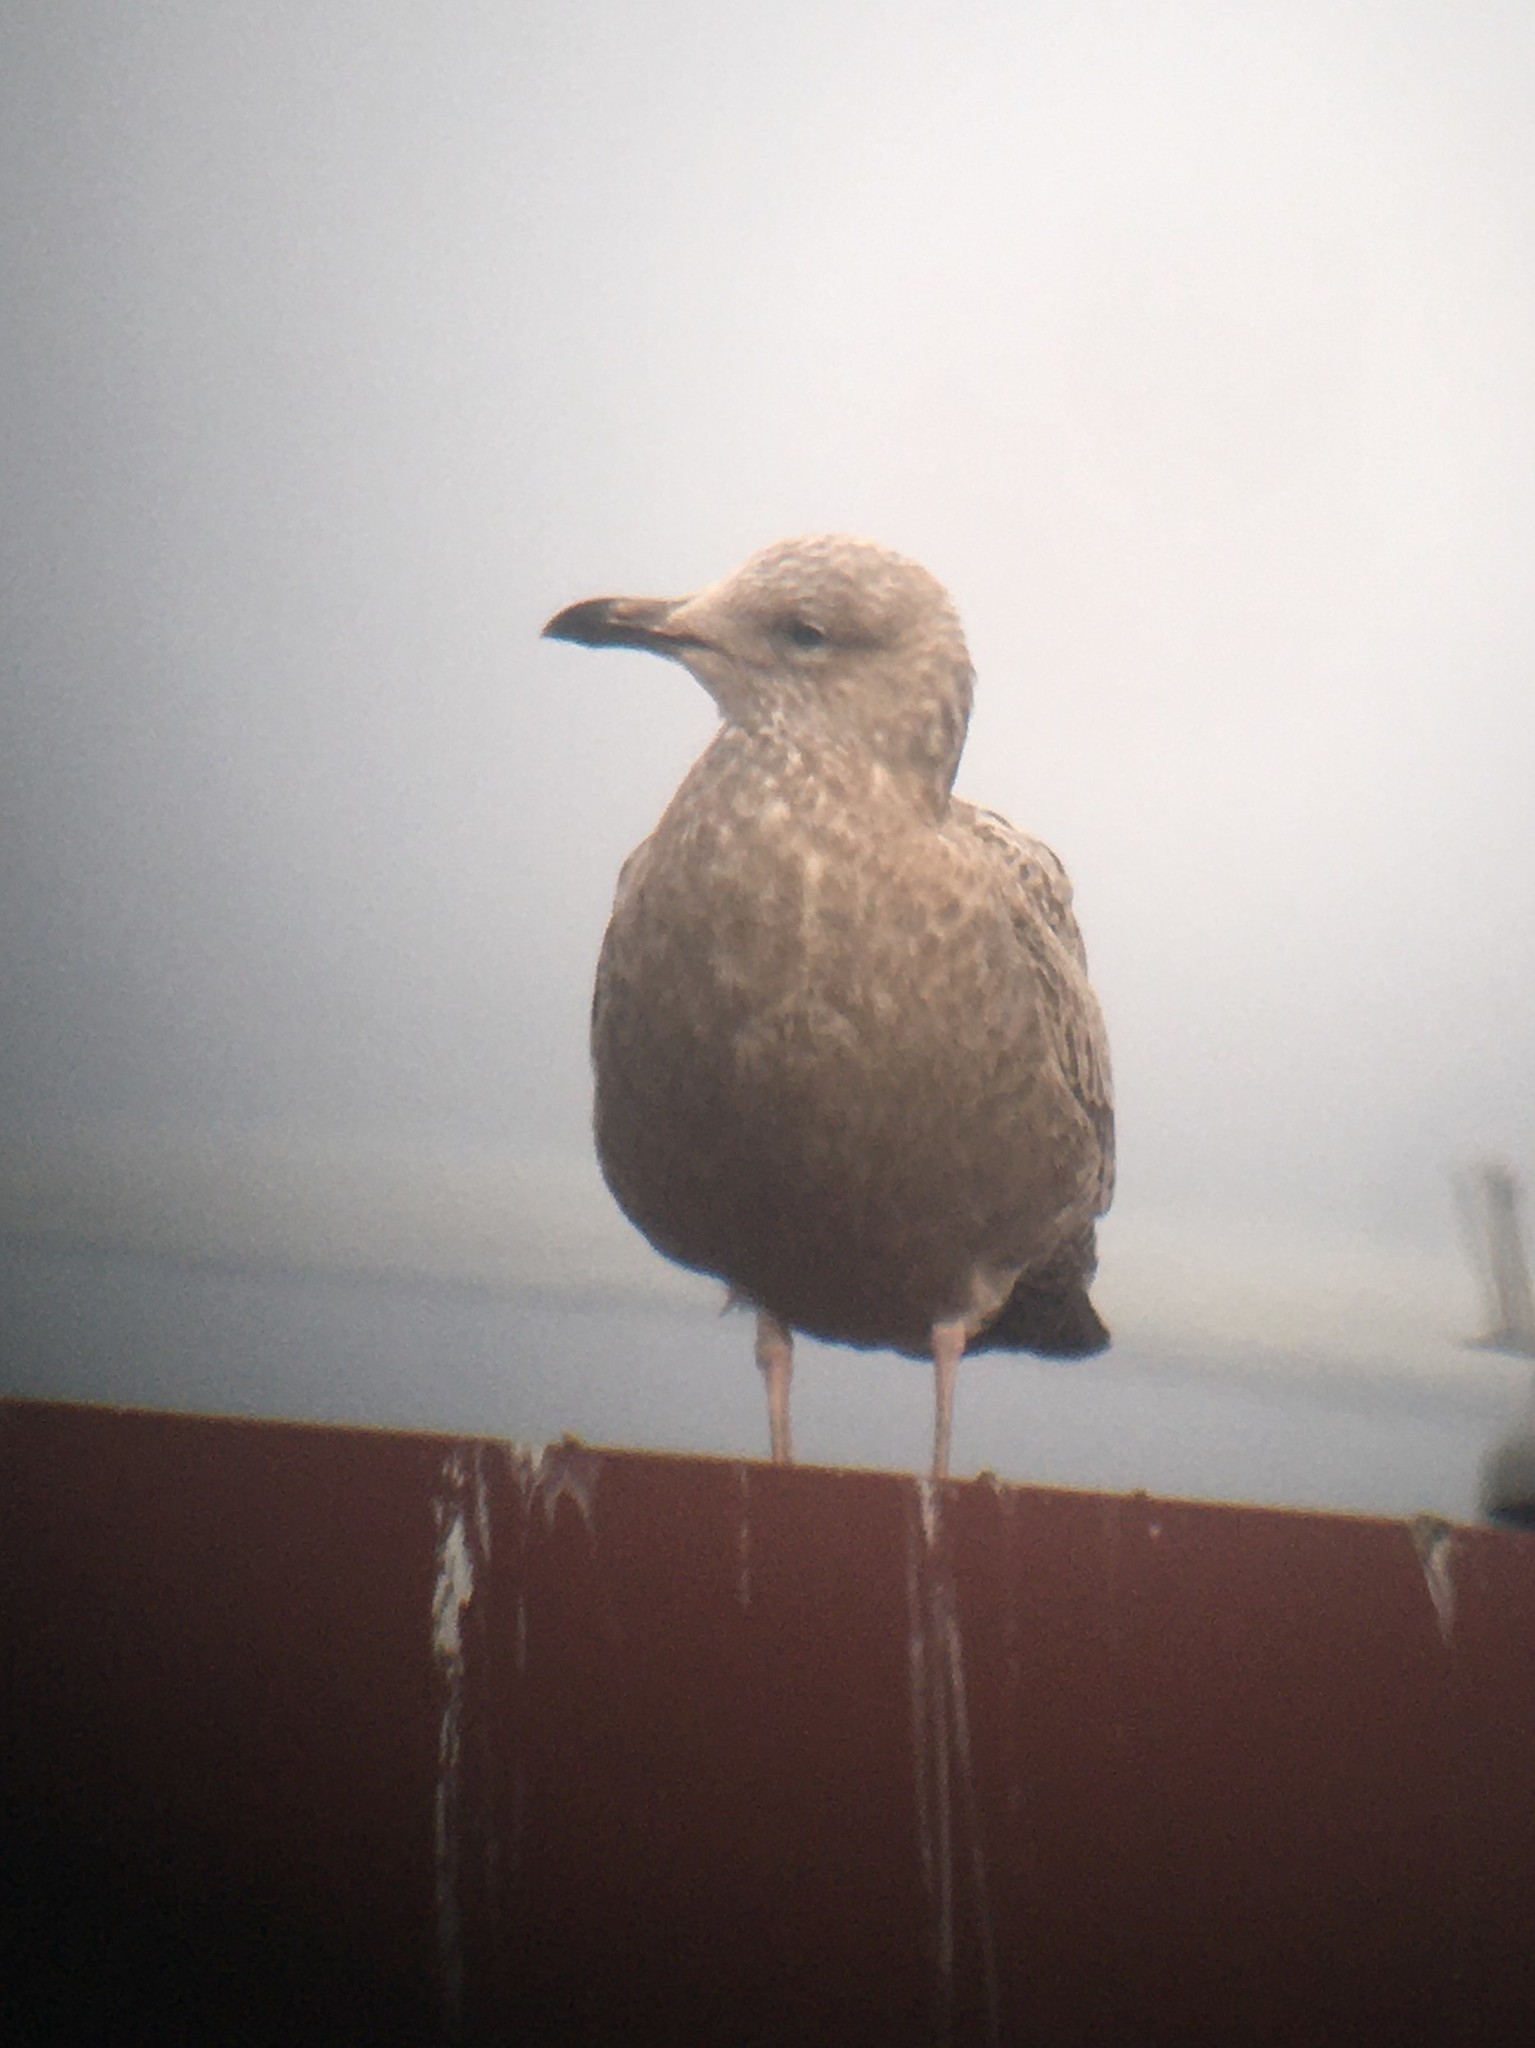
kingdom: Animalia
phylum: Chordata
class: Aves
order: Charadriiformes
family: Laridae
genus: Larus
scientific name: Larus argentatus
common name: Herring gull
